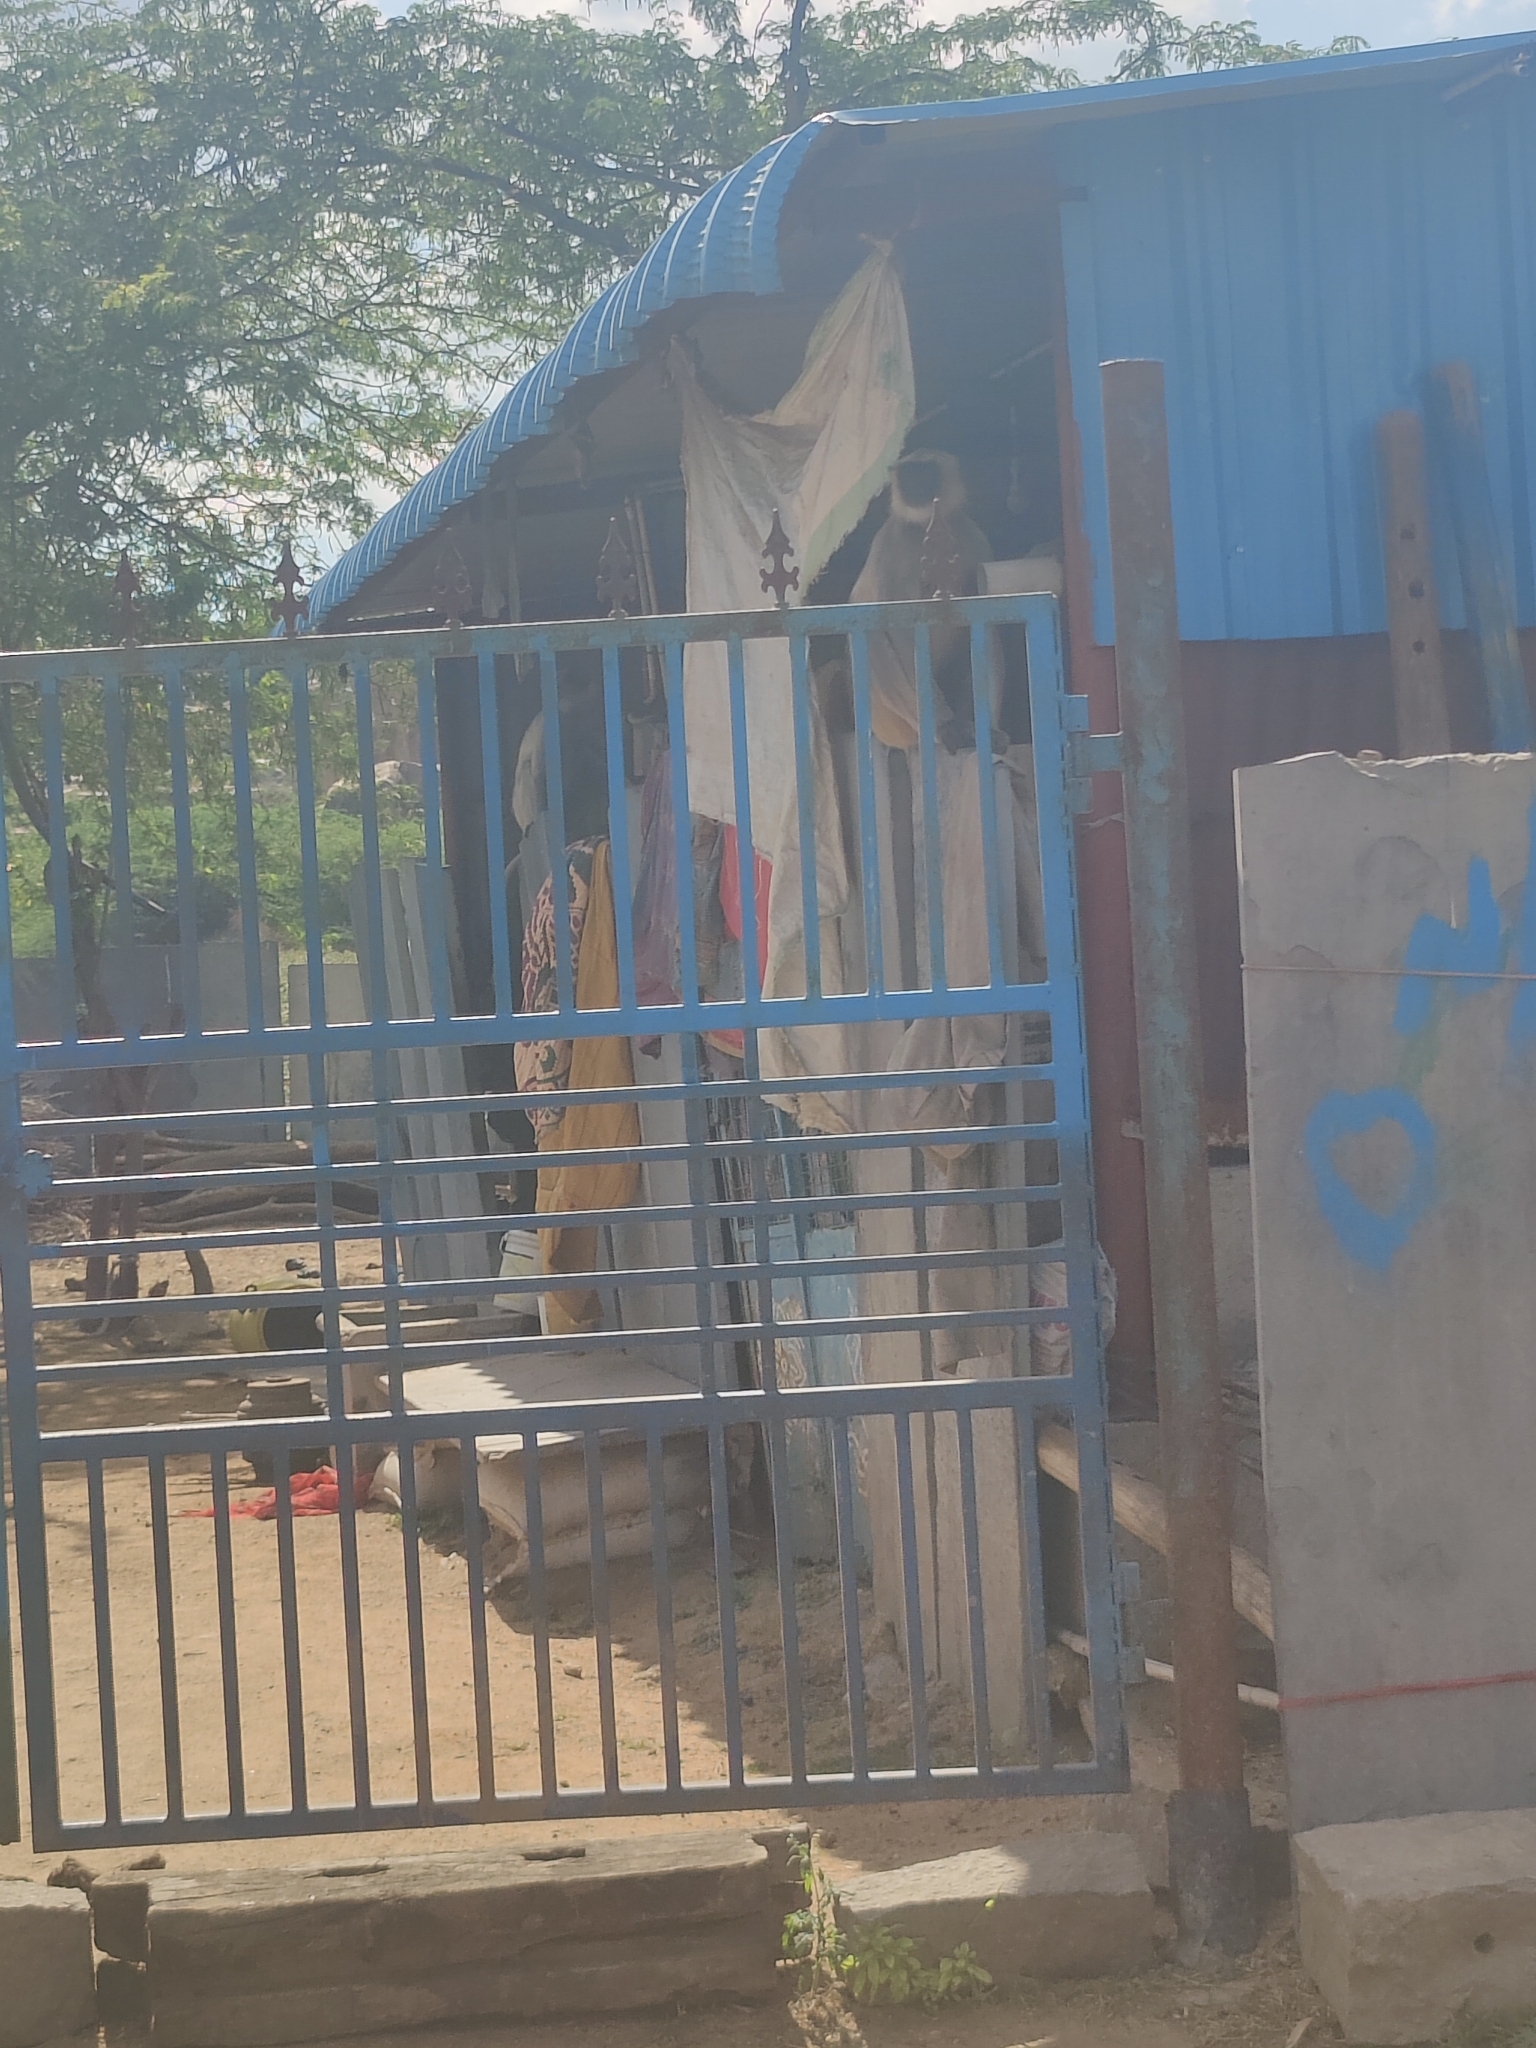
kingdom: Animalia
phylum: Chordata
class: Mammalia
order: Primates
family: Cercopithecidae
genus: Semnopithecus
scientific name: Semnopithecus entellus
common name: Northern plains gray langur
